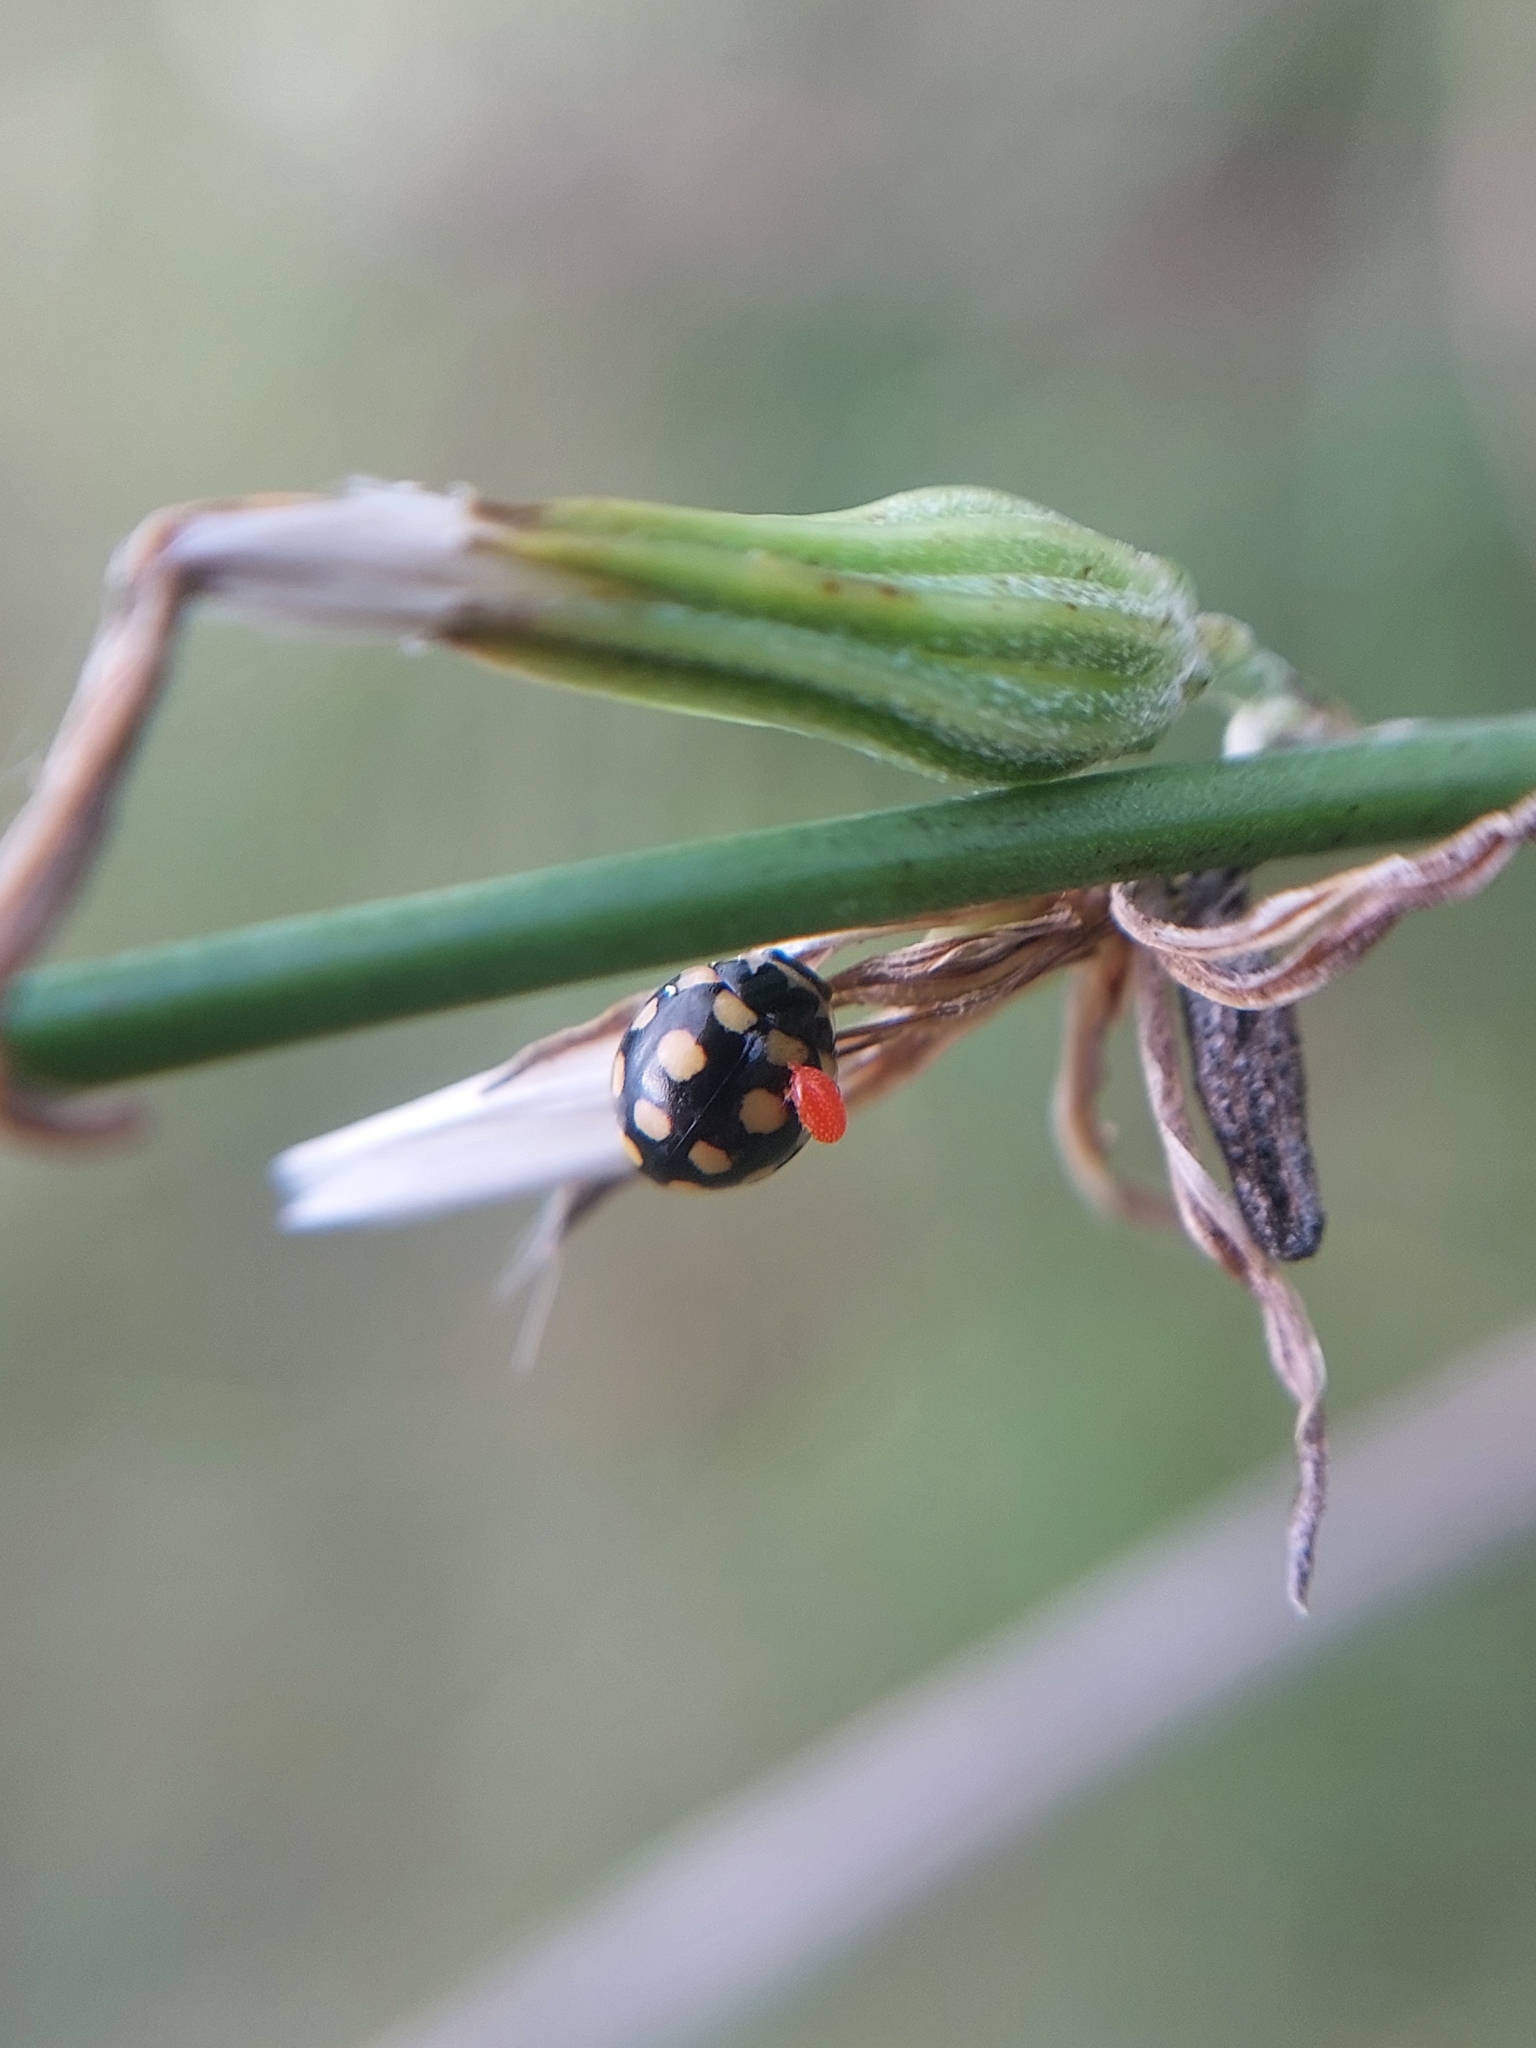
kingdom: Animalia
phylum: Arthropoda
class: Insecta
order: Coleoptera
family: Coccinellidae
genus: Coccinula
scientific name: Coccinula quatuordecimpustulata
